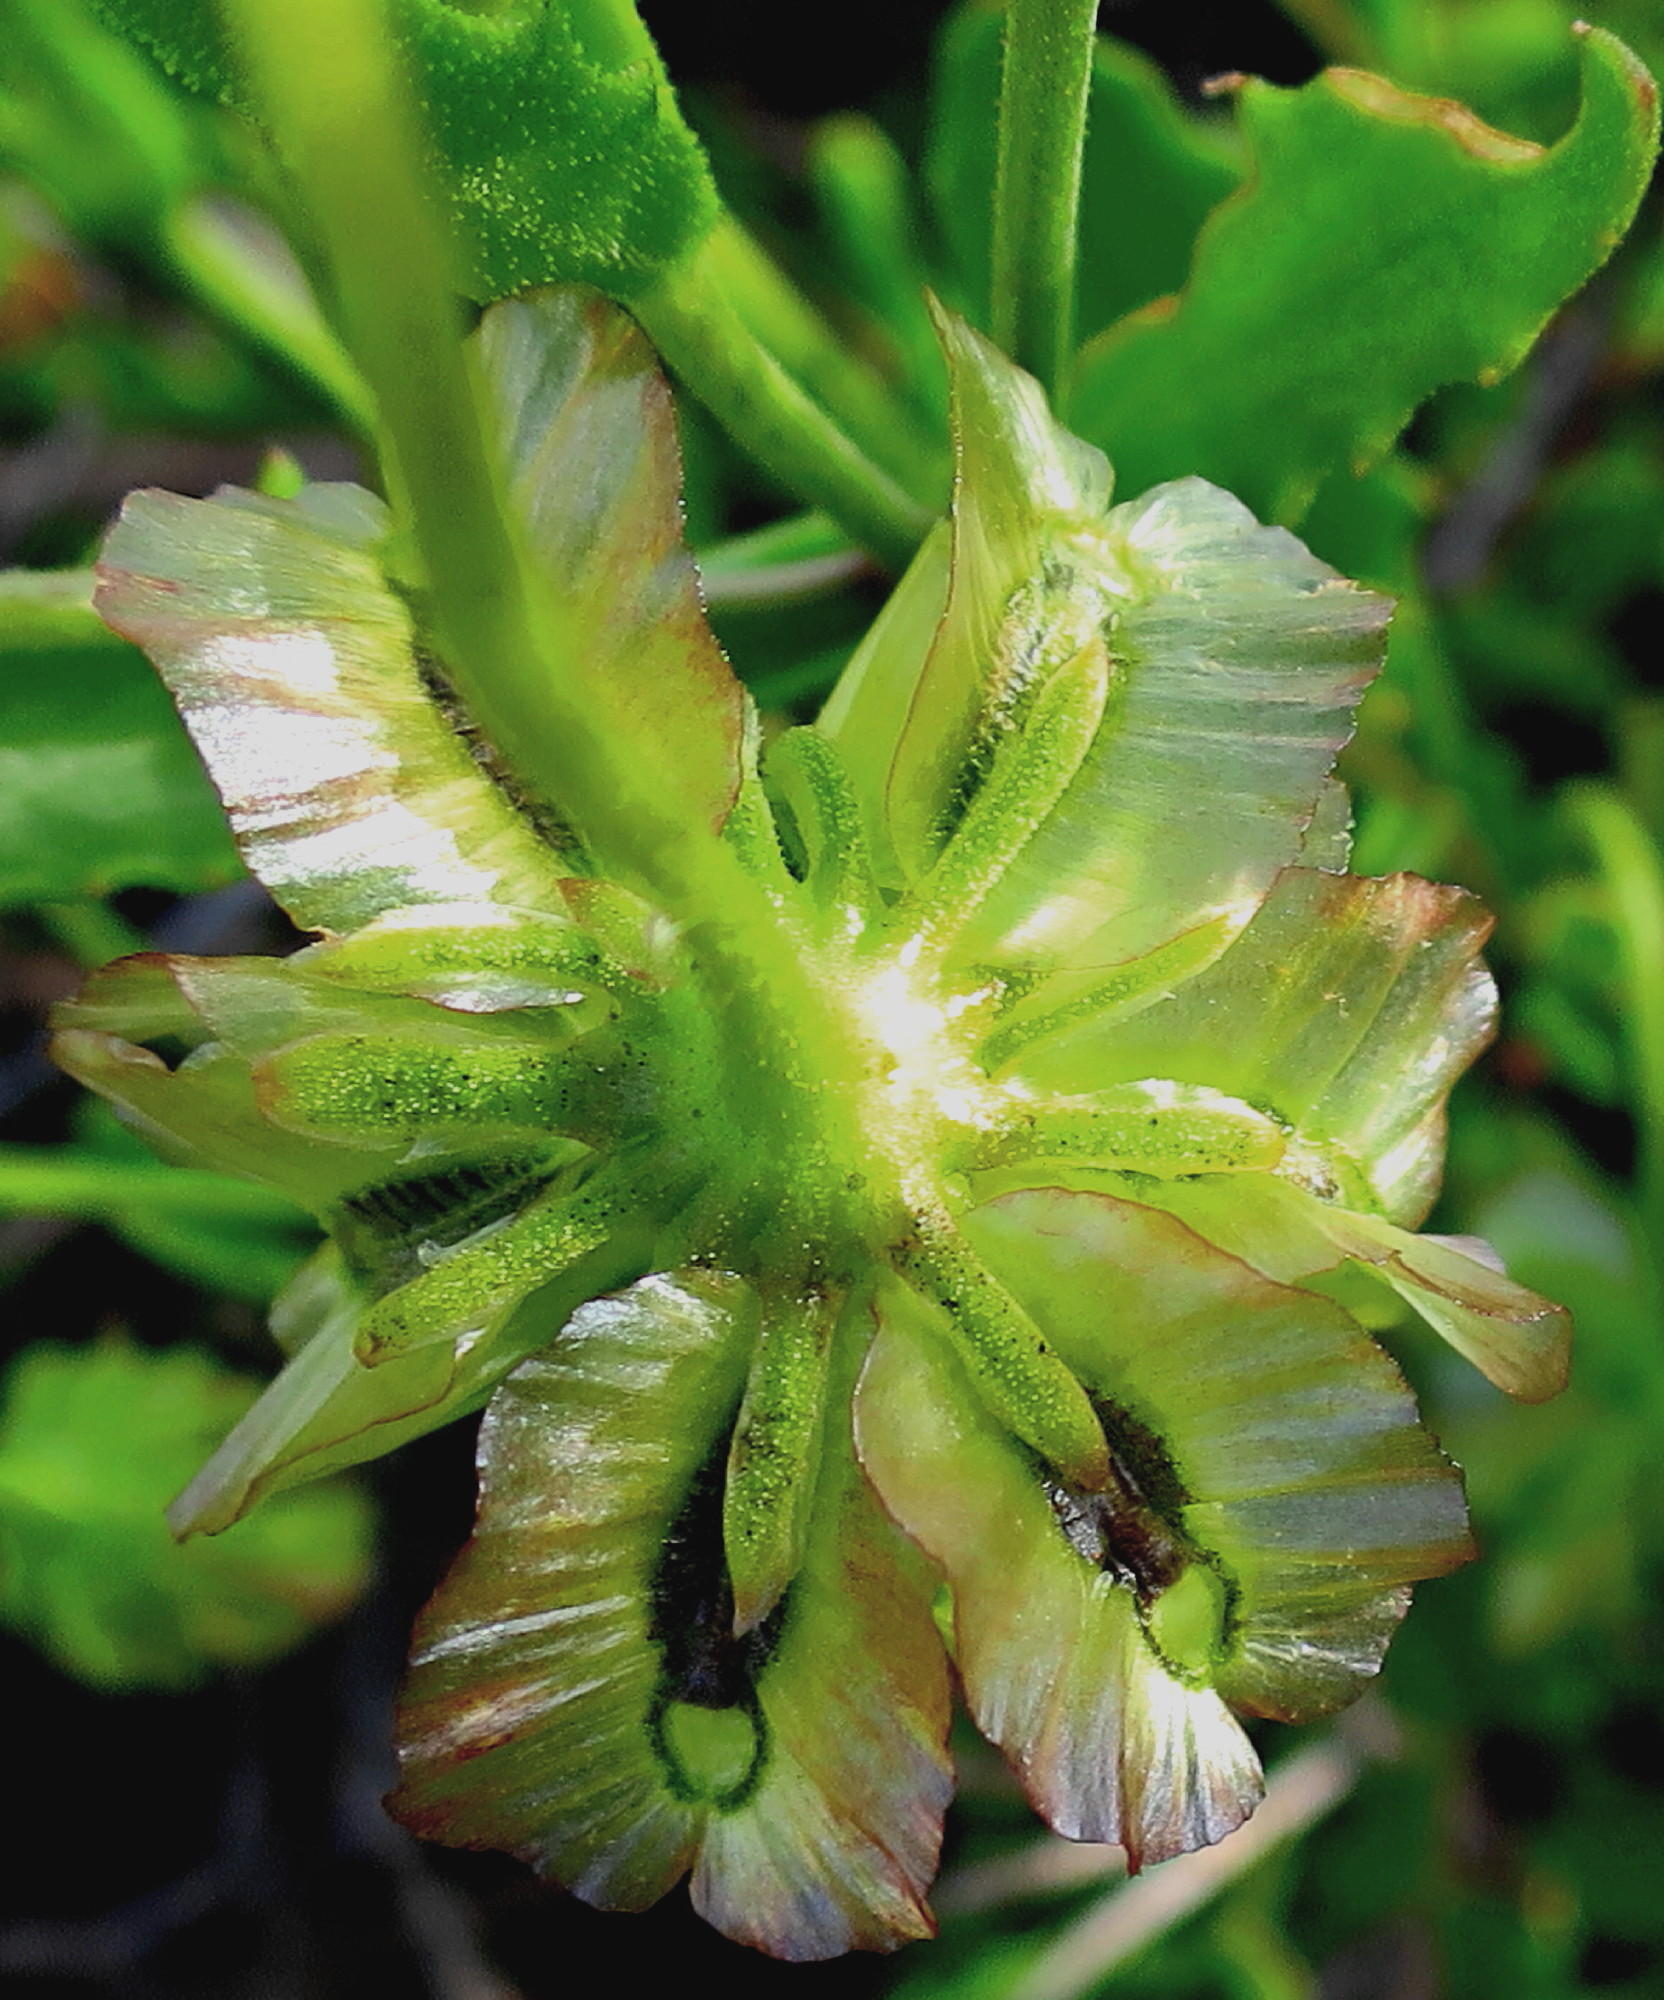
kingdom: Plantae
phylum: Tracheophyta
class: Magnoliopsida
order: Asterales
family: Asteraceae
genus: Osteospermum
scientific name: Osteospermum sinuatum
